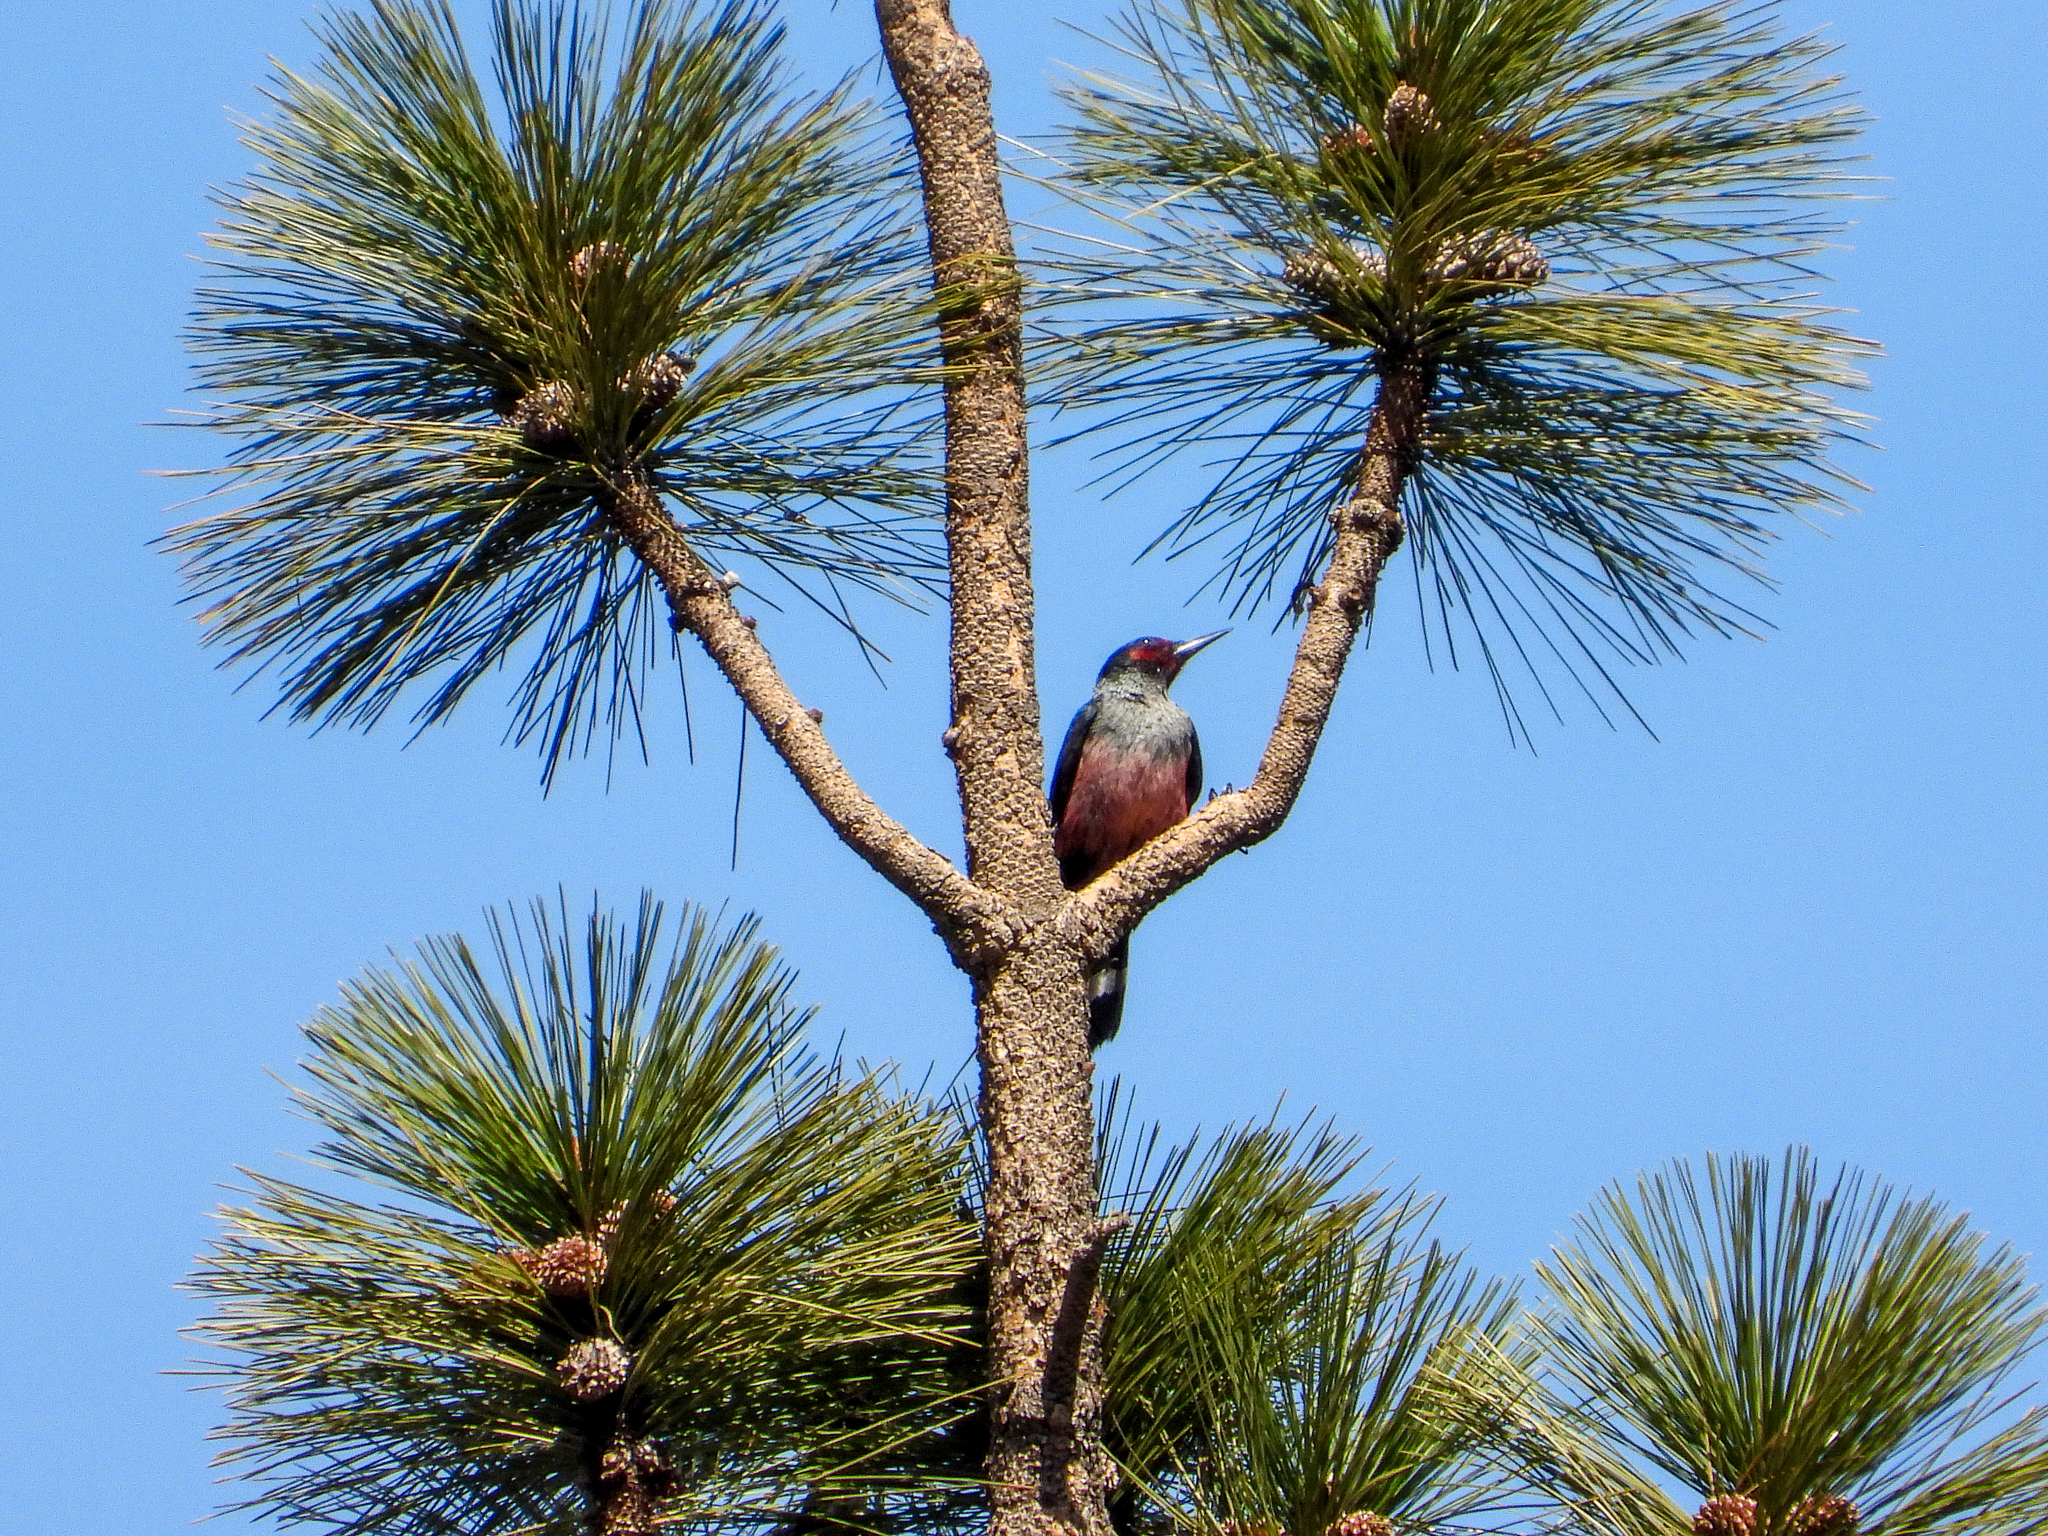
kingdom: Animalia
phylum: Chordata
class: Aves
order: Piciformes
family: Picidae
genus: Melanerpes
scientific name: Melanerpes lewis
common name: Lewis's woodpecker
